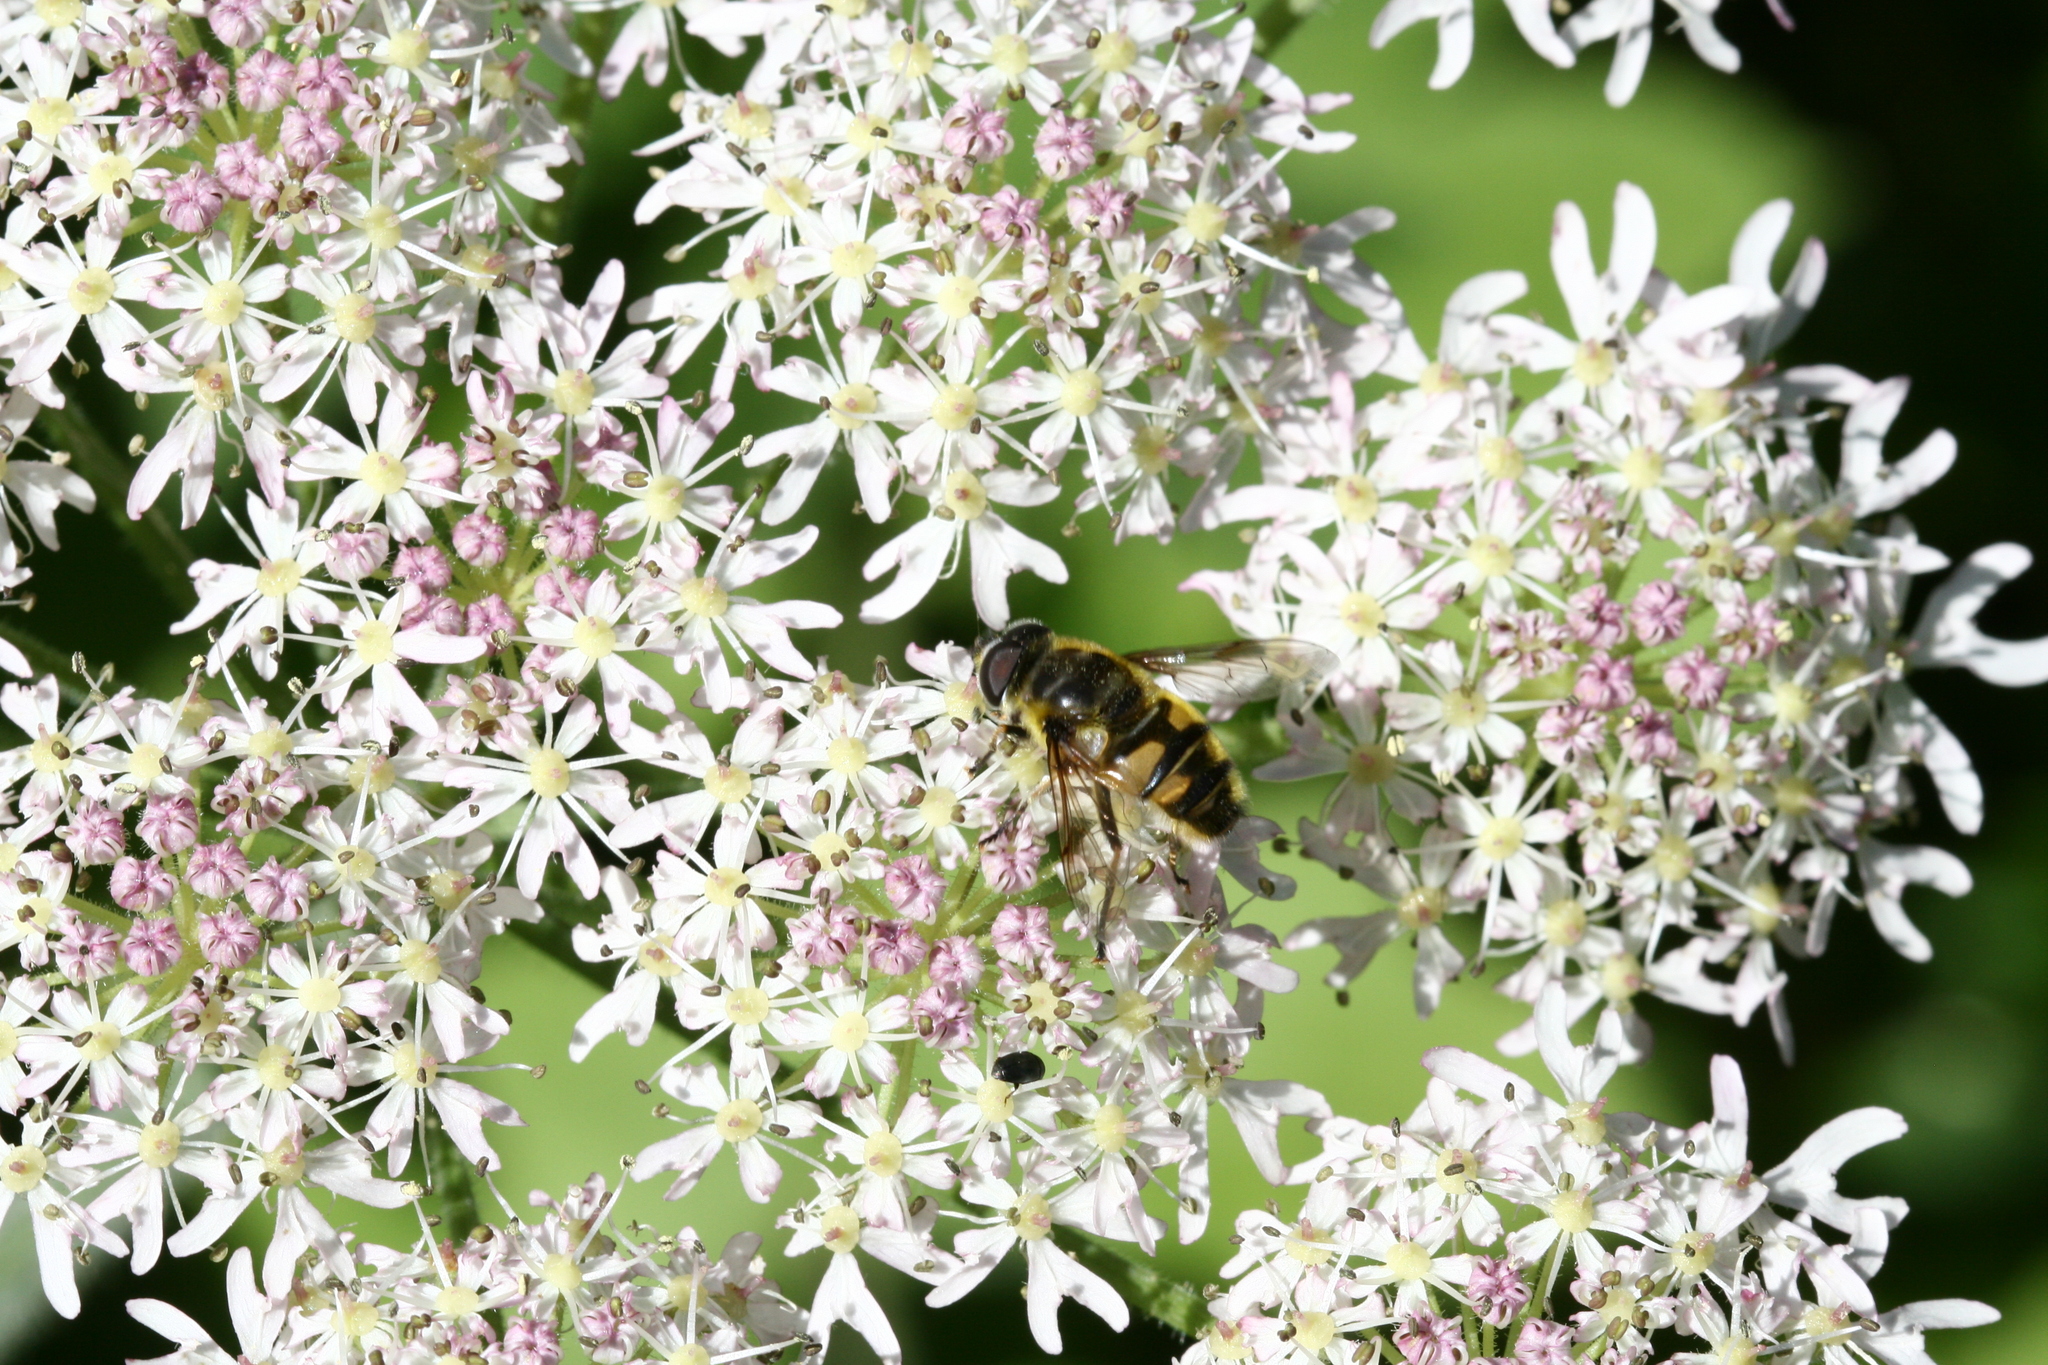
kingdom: Animalia
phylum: Arthropoda
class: Insecta
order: Diptera
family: Syrphidae
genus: Myathropa
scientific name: Myathropa florea
